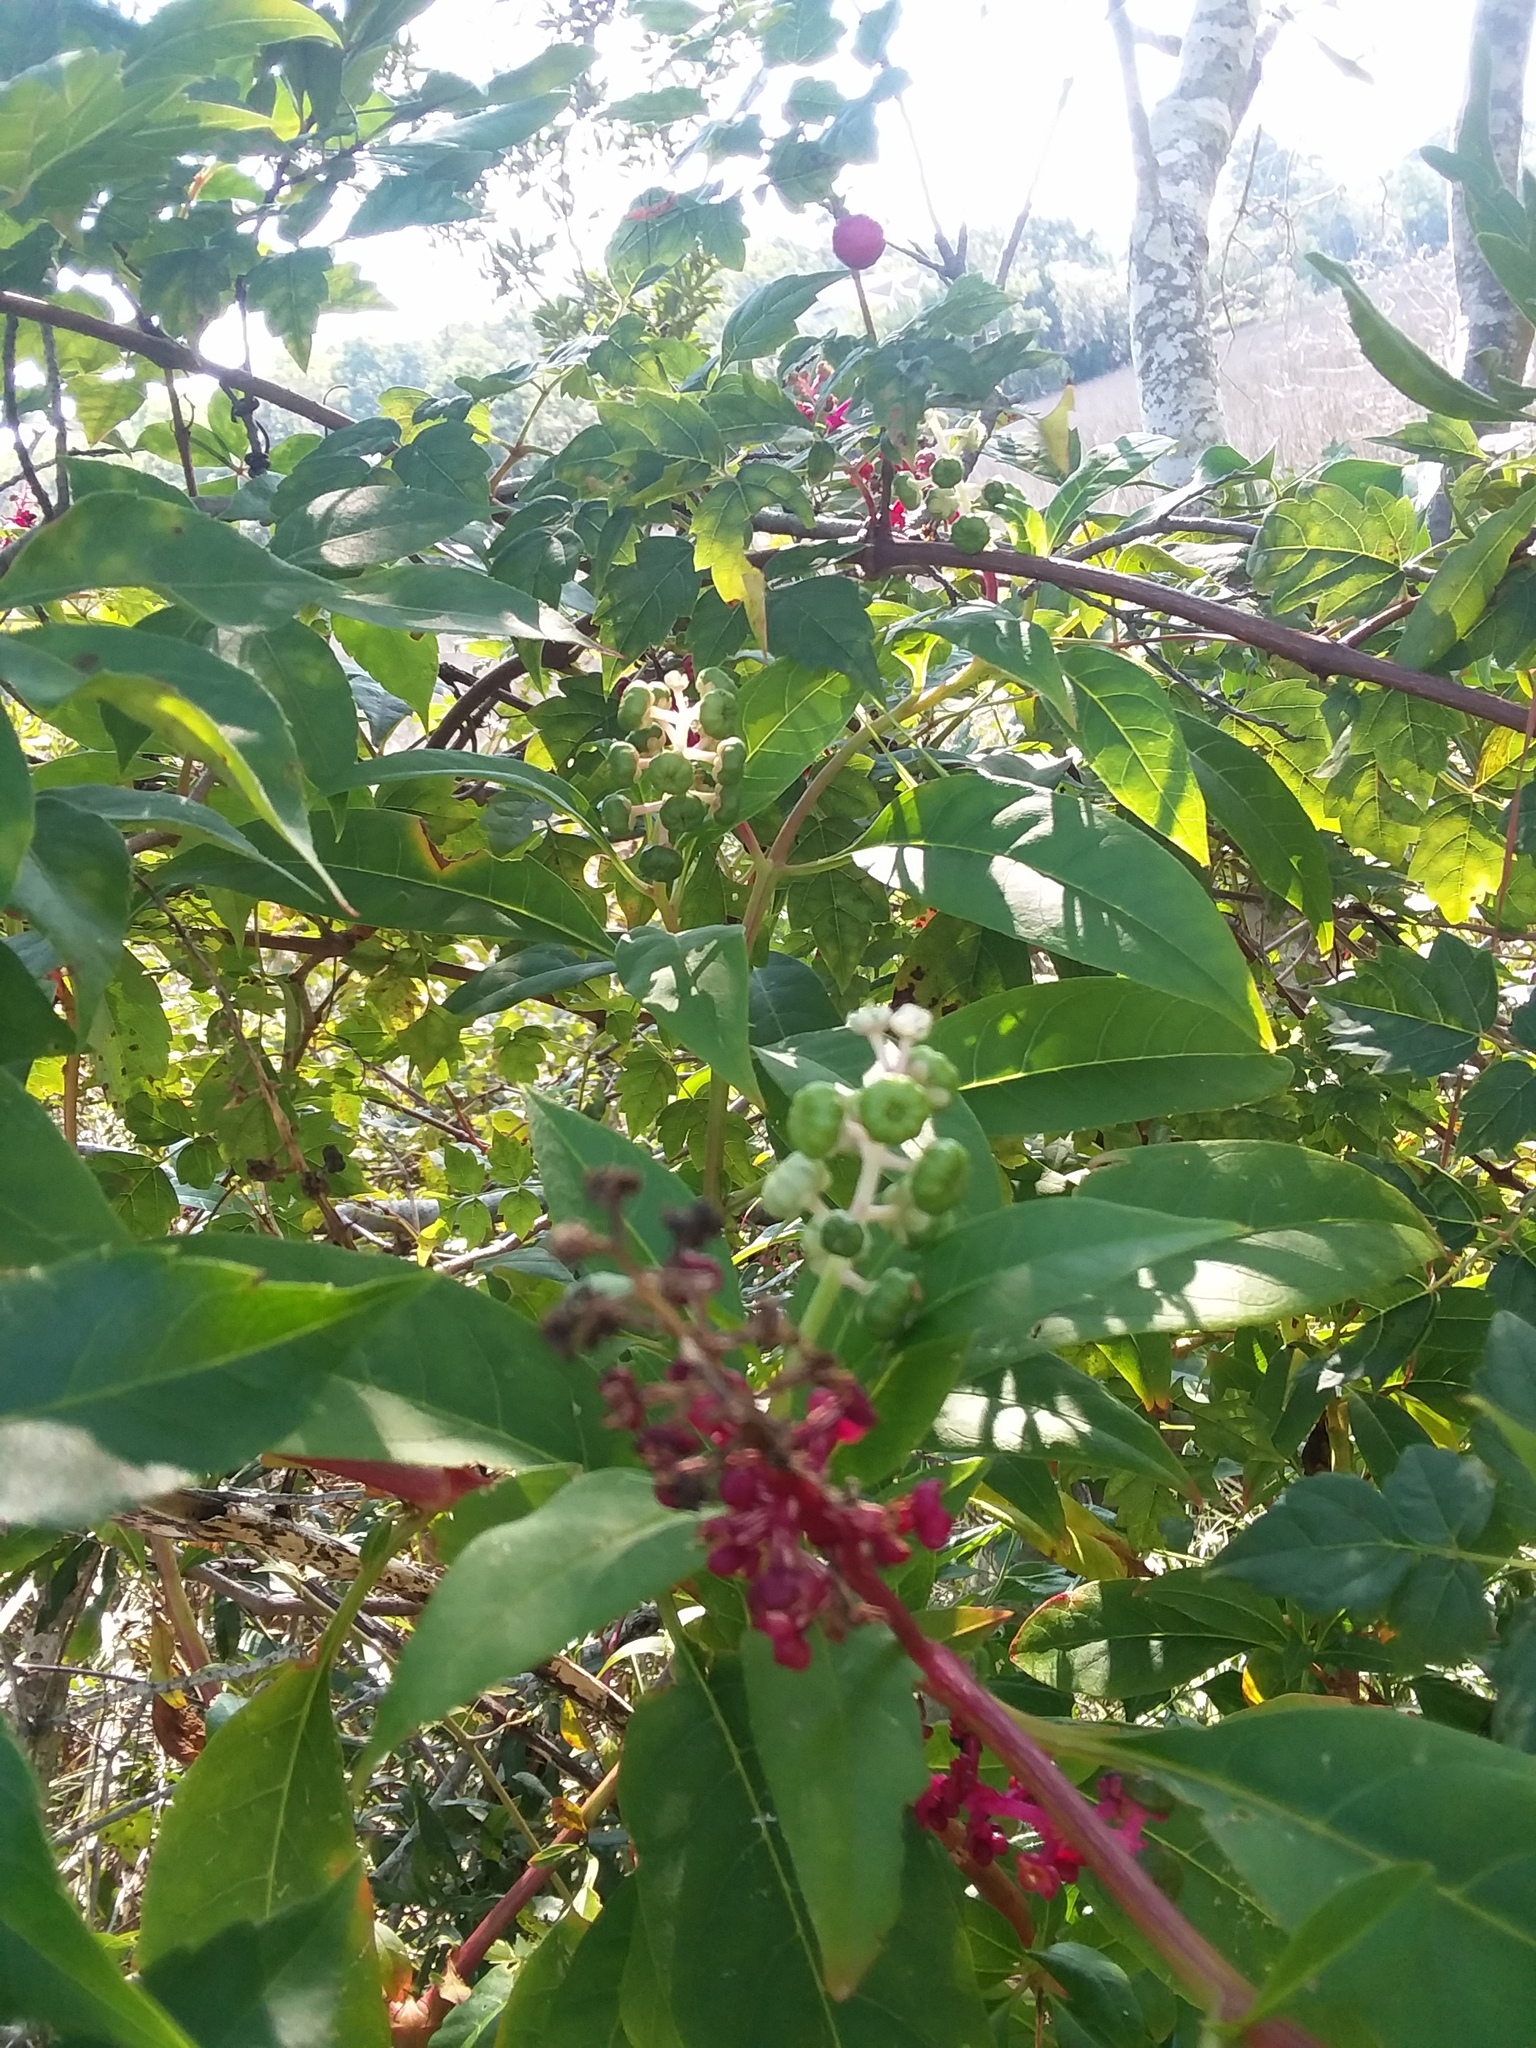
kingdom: Plantae
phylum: Tracheophyta
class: Magnoliopsida
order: Caryophyllales
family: Phytolaccaceae
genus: Phytolacca
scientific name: Phytolacca americana
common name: American pokeweed
